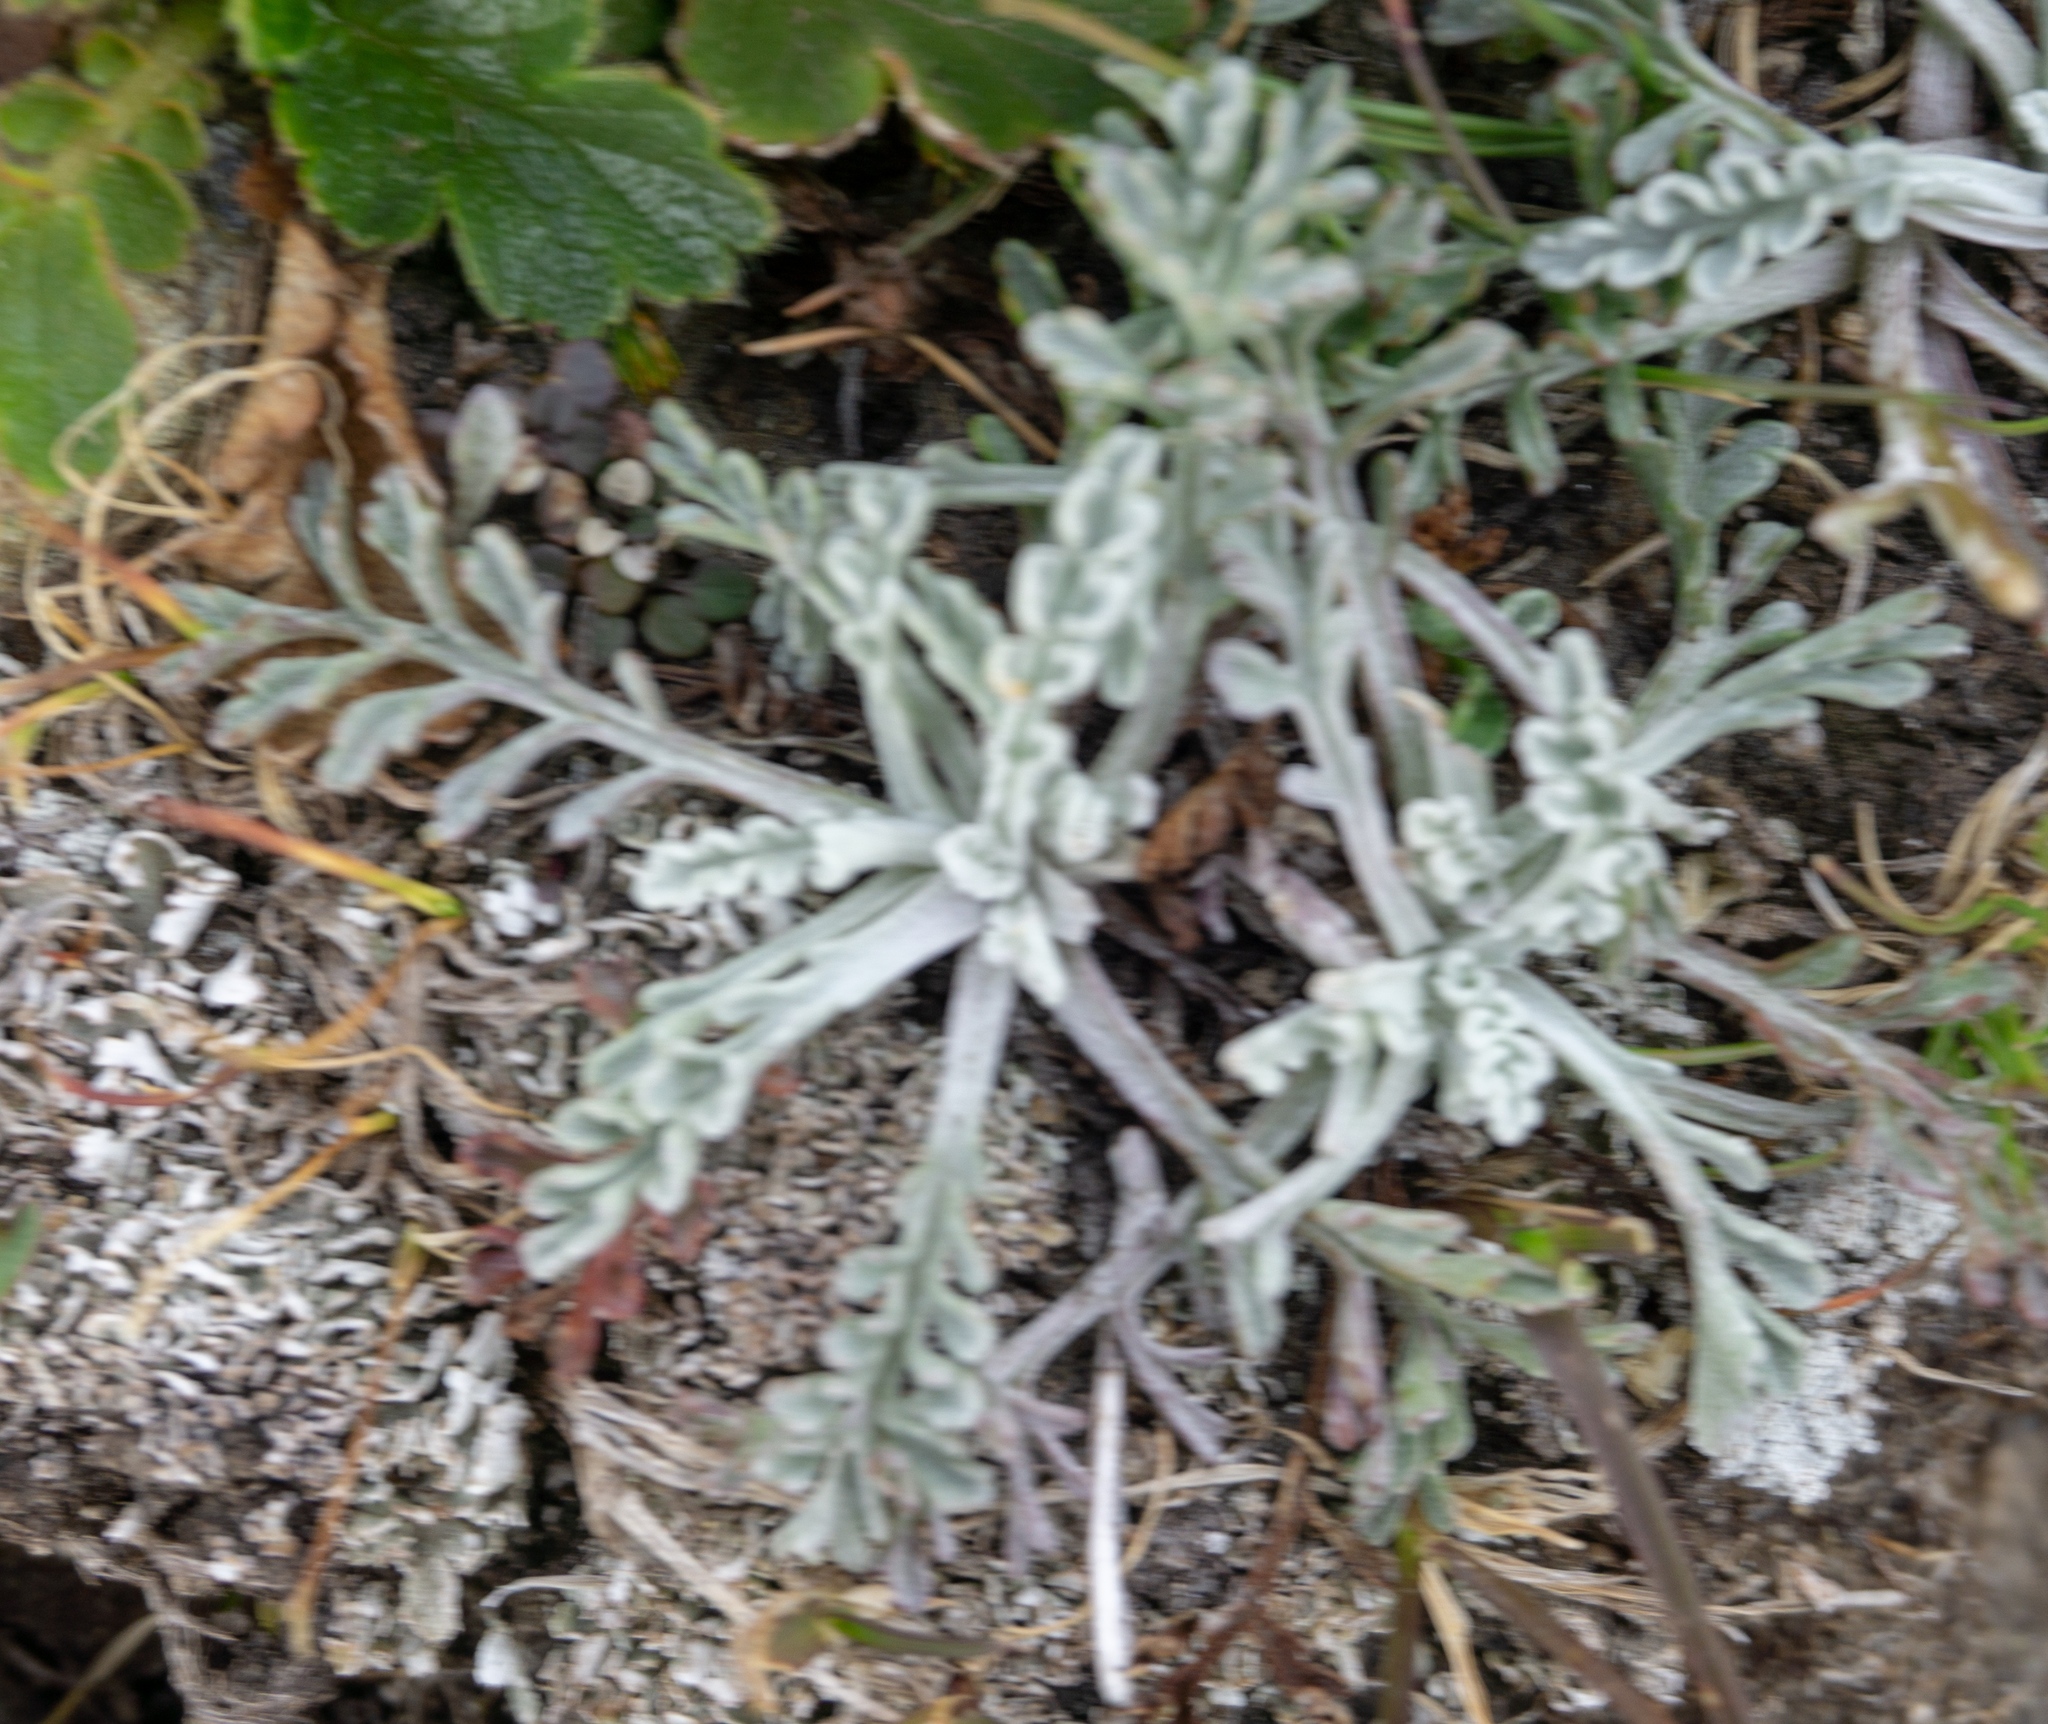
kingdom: Plantae
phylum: Tracheophyta
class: Magnoliopsida
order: Asterales
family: Asteraceae
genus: Jacobaea
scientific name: Jacobaea incana
